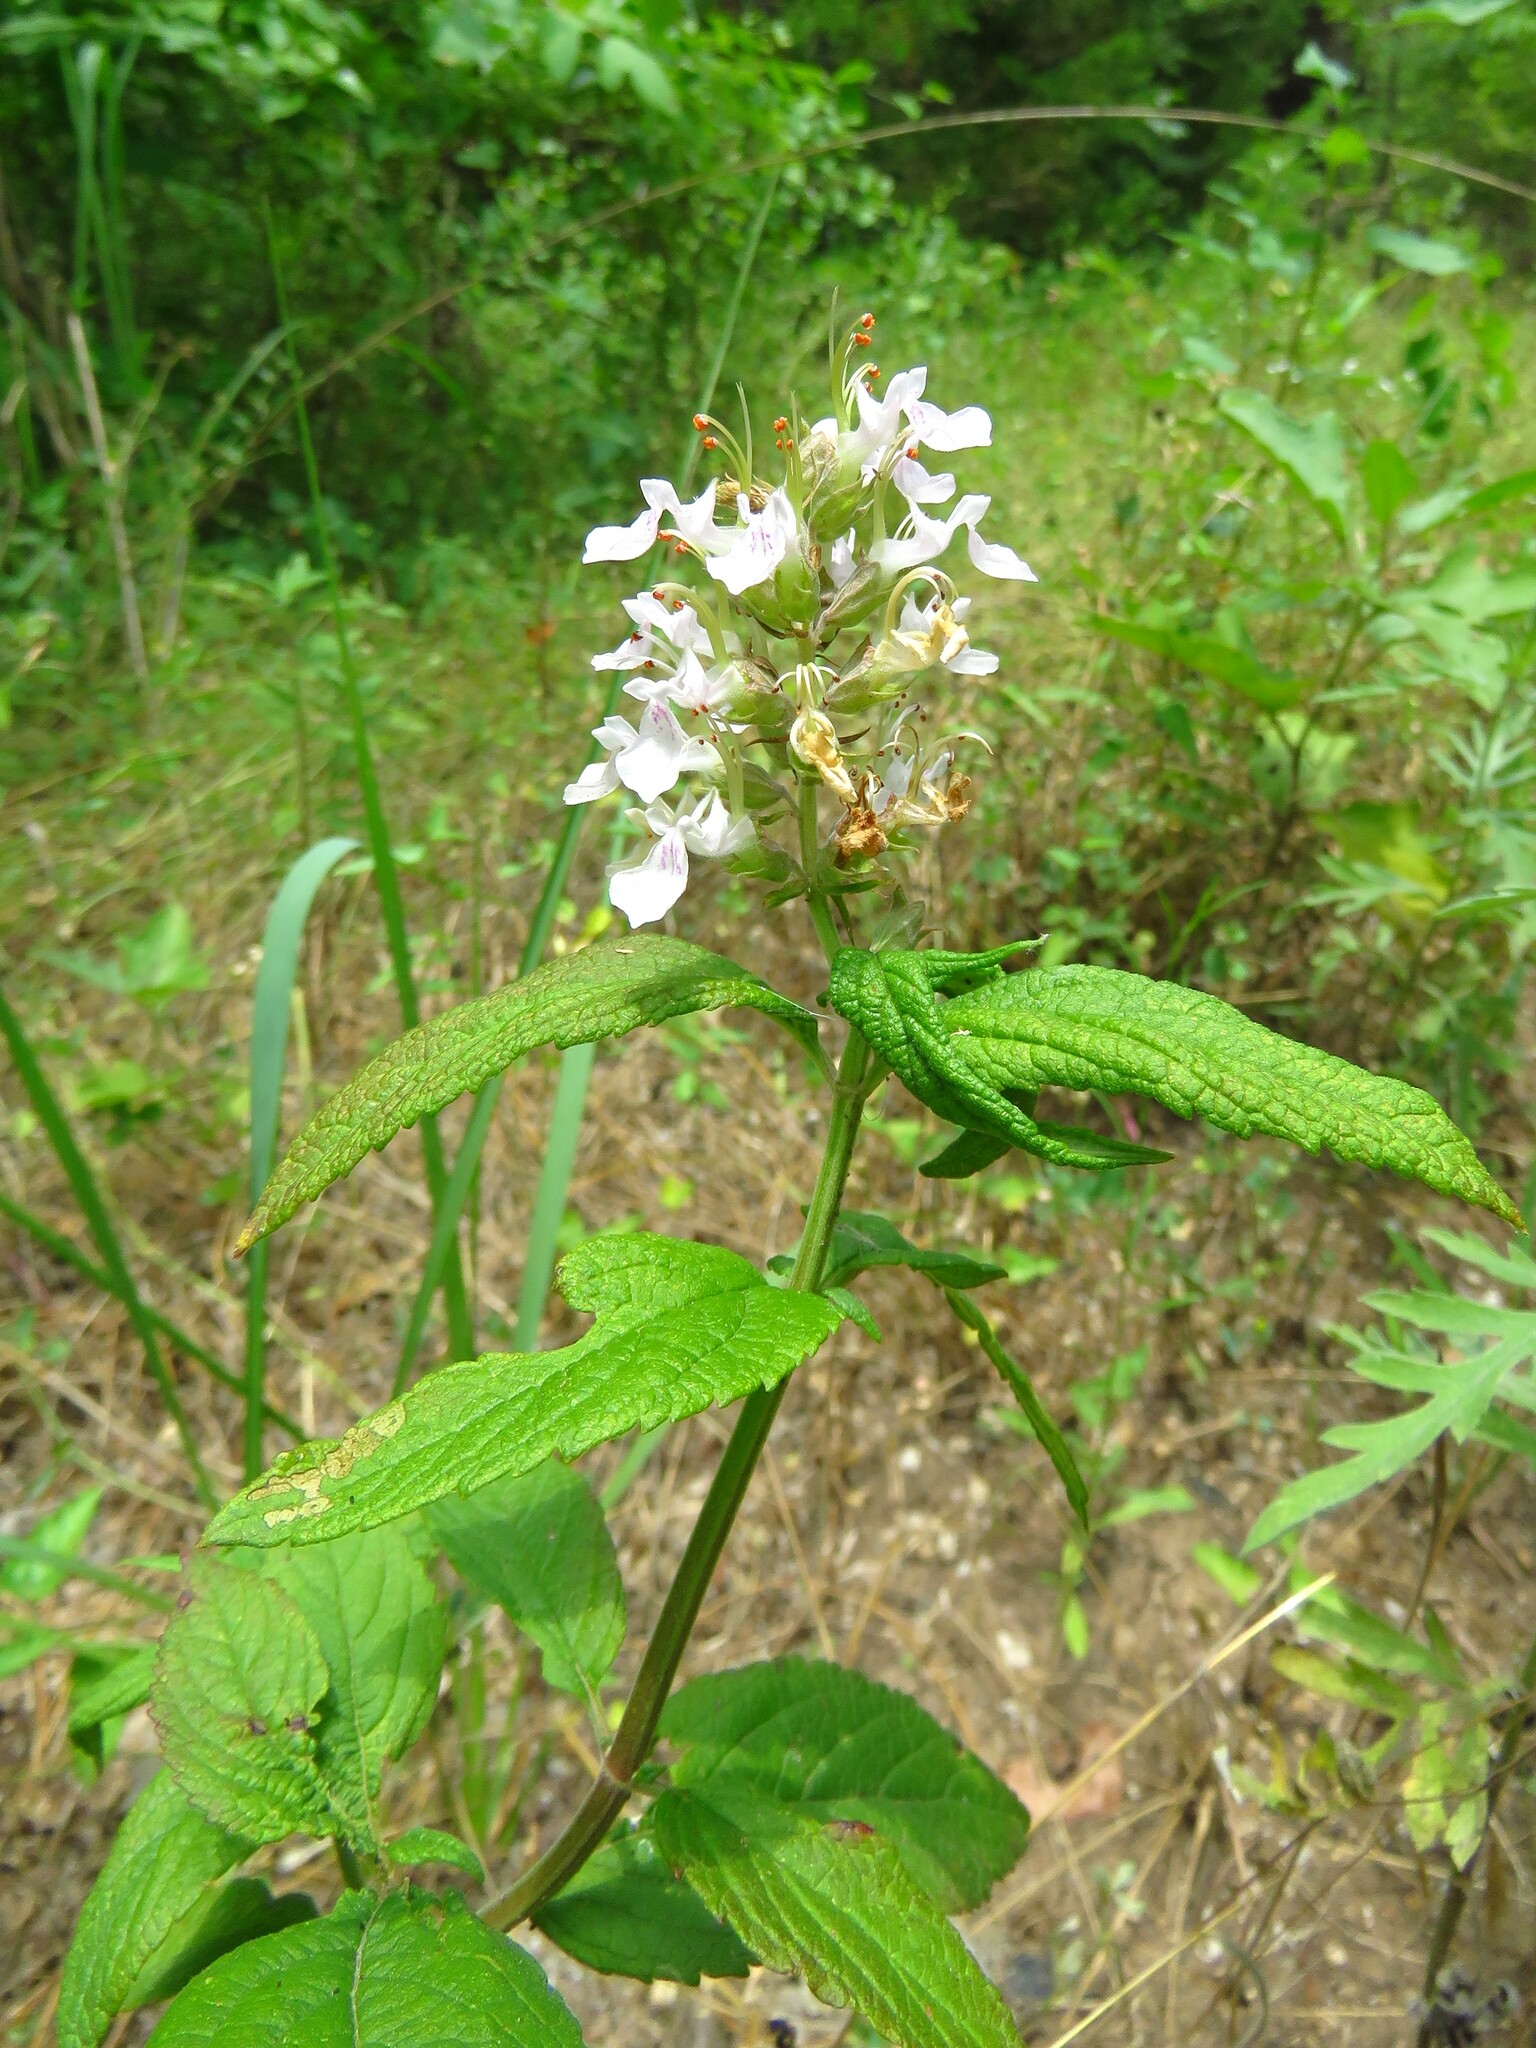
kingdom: Plantae
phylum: Tracheophyta
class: Magnoliopsida
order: Lamiales
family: Lamiaceae
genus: Teucrium
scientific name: Teucrium canadense
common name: American germander
